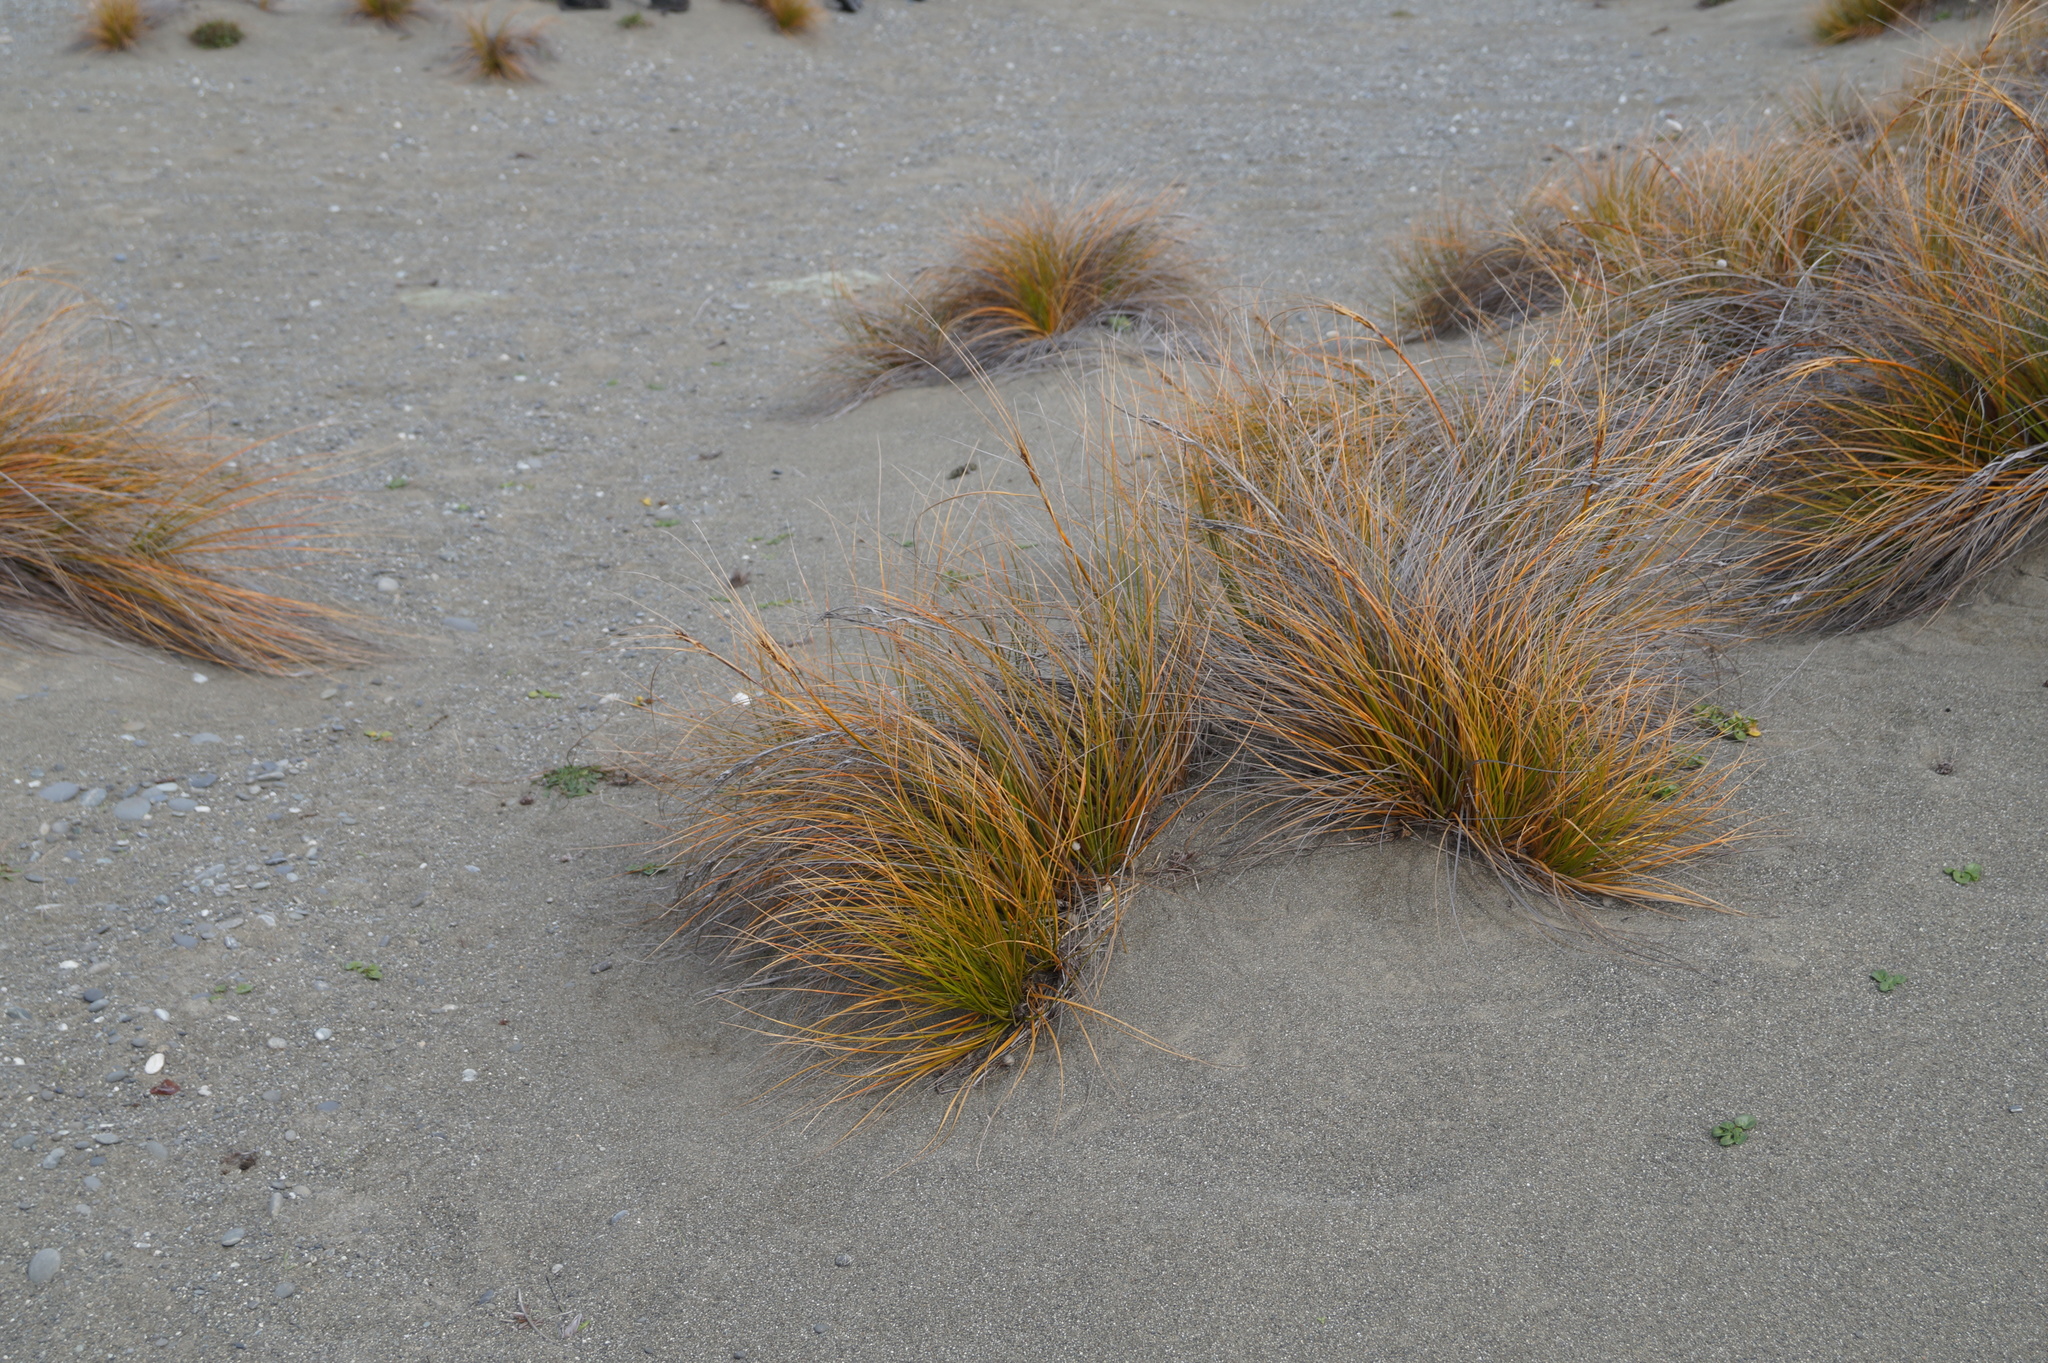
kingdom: Plantae
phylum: Tracheophyta
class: Liliopsida
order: Poales
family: Cyperaceae
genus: Ficinia
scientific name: Ficinia spiralis
